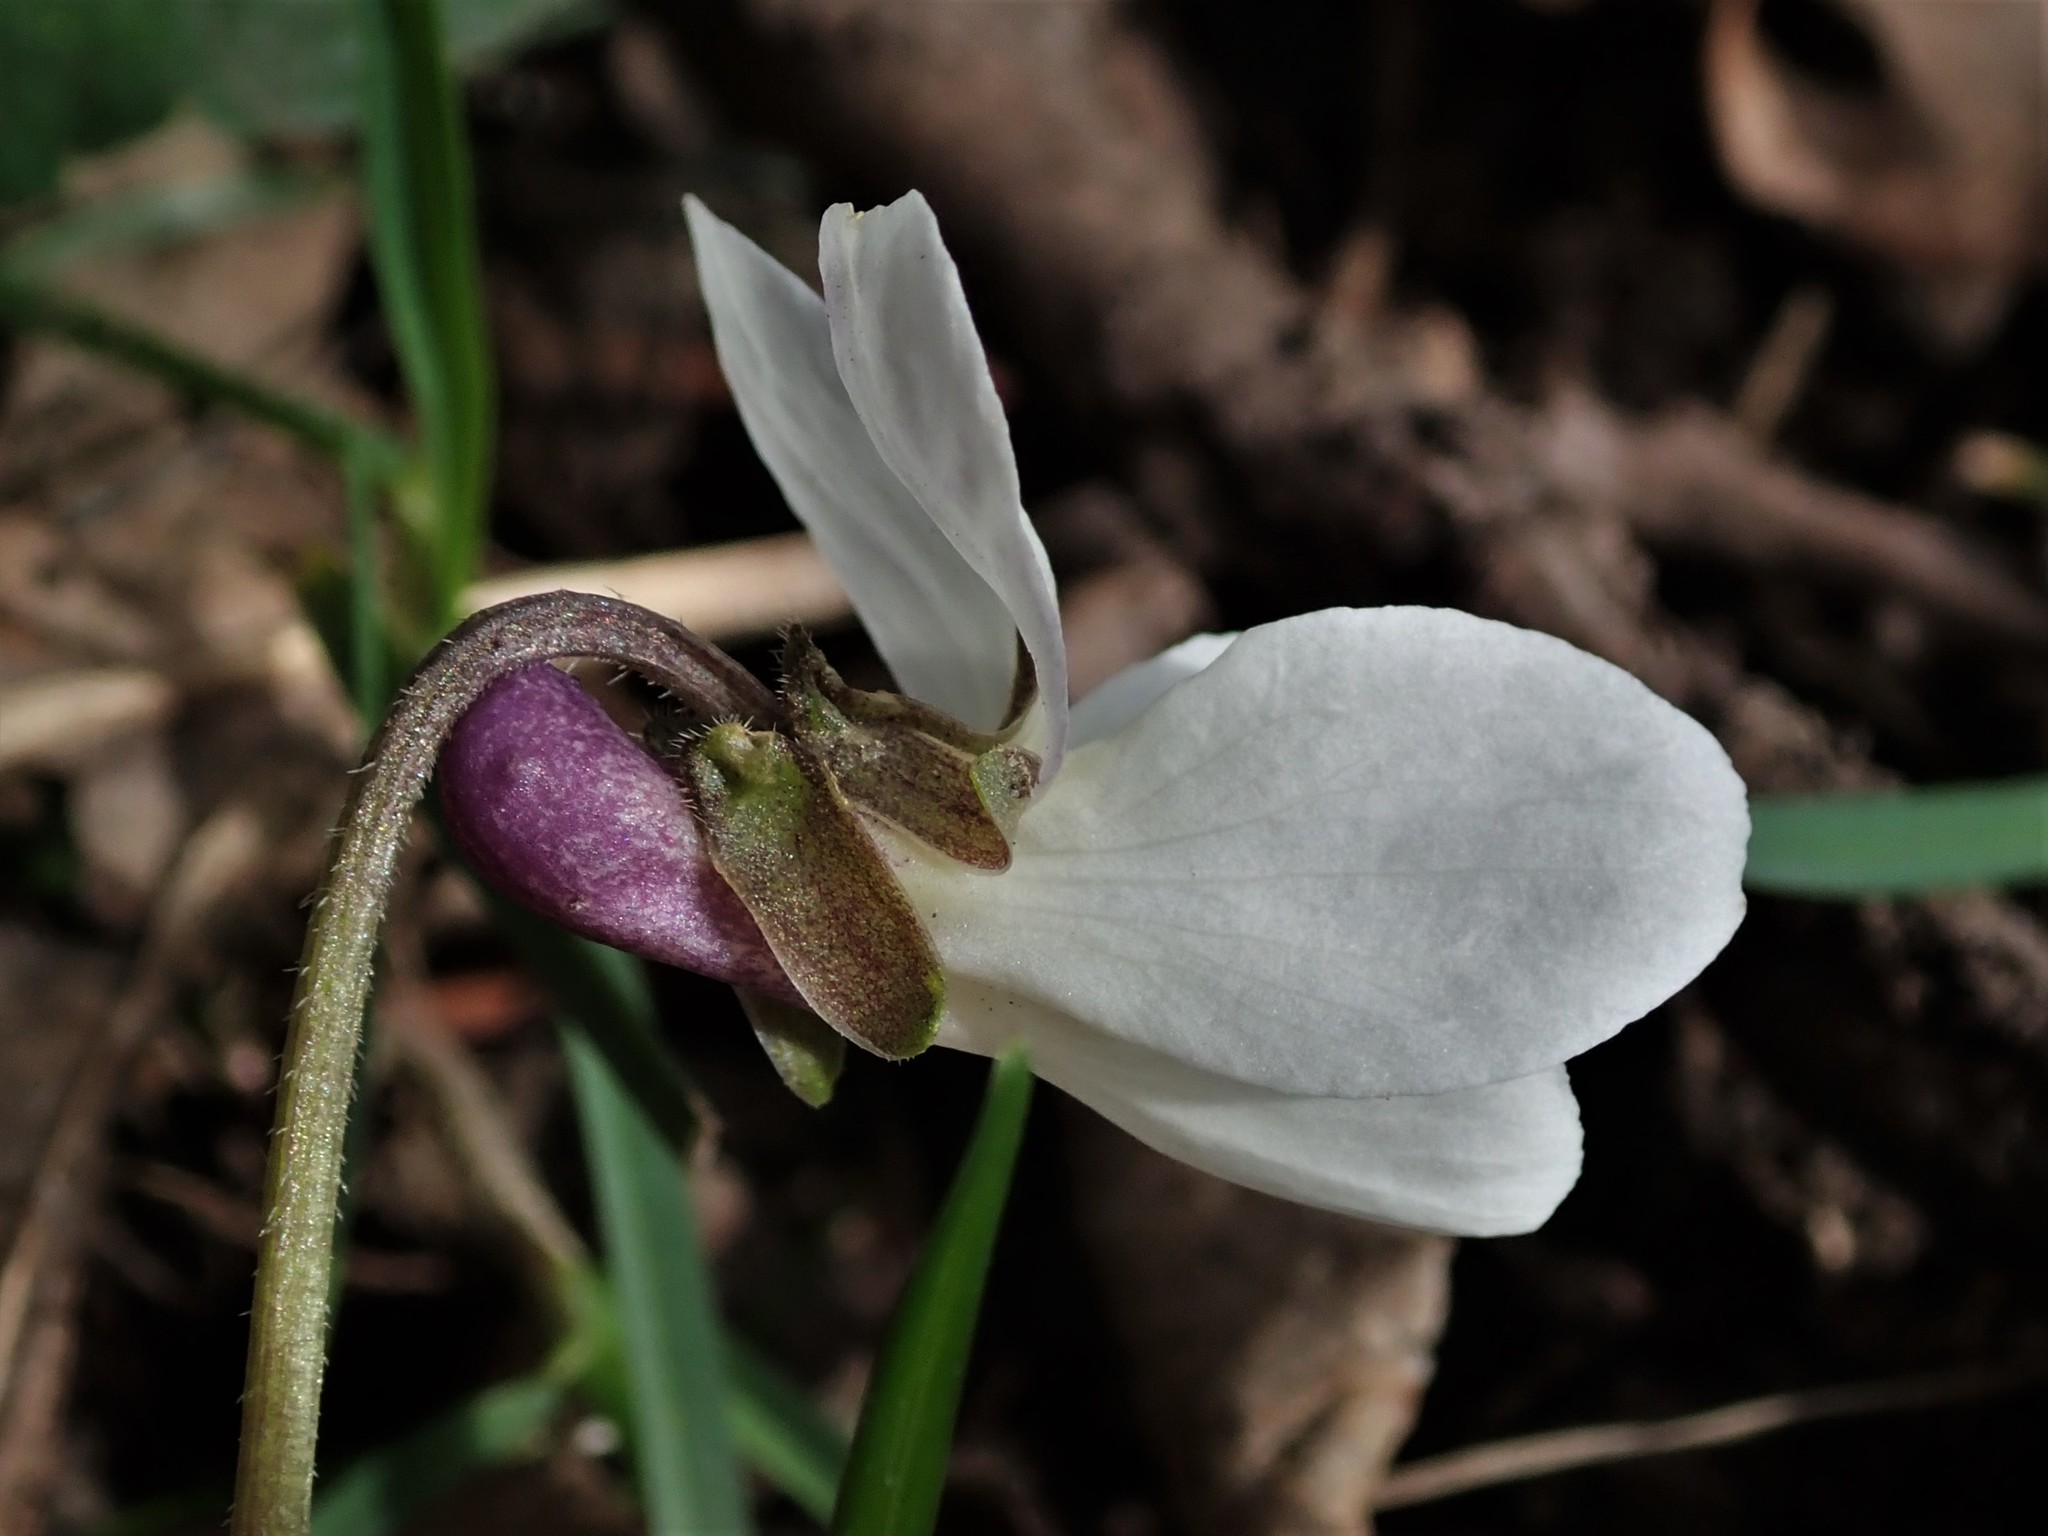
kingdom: Plantae
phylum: Tracheophyta
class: Magnoliopsida
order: Malpighiales
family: Violaceae
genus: Viola
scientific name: Viola odorata
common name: Sweet violet
